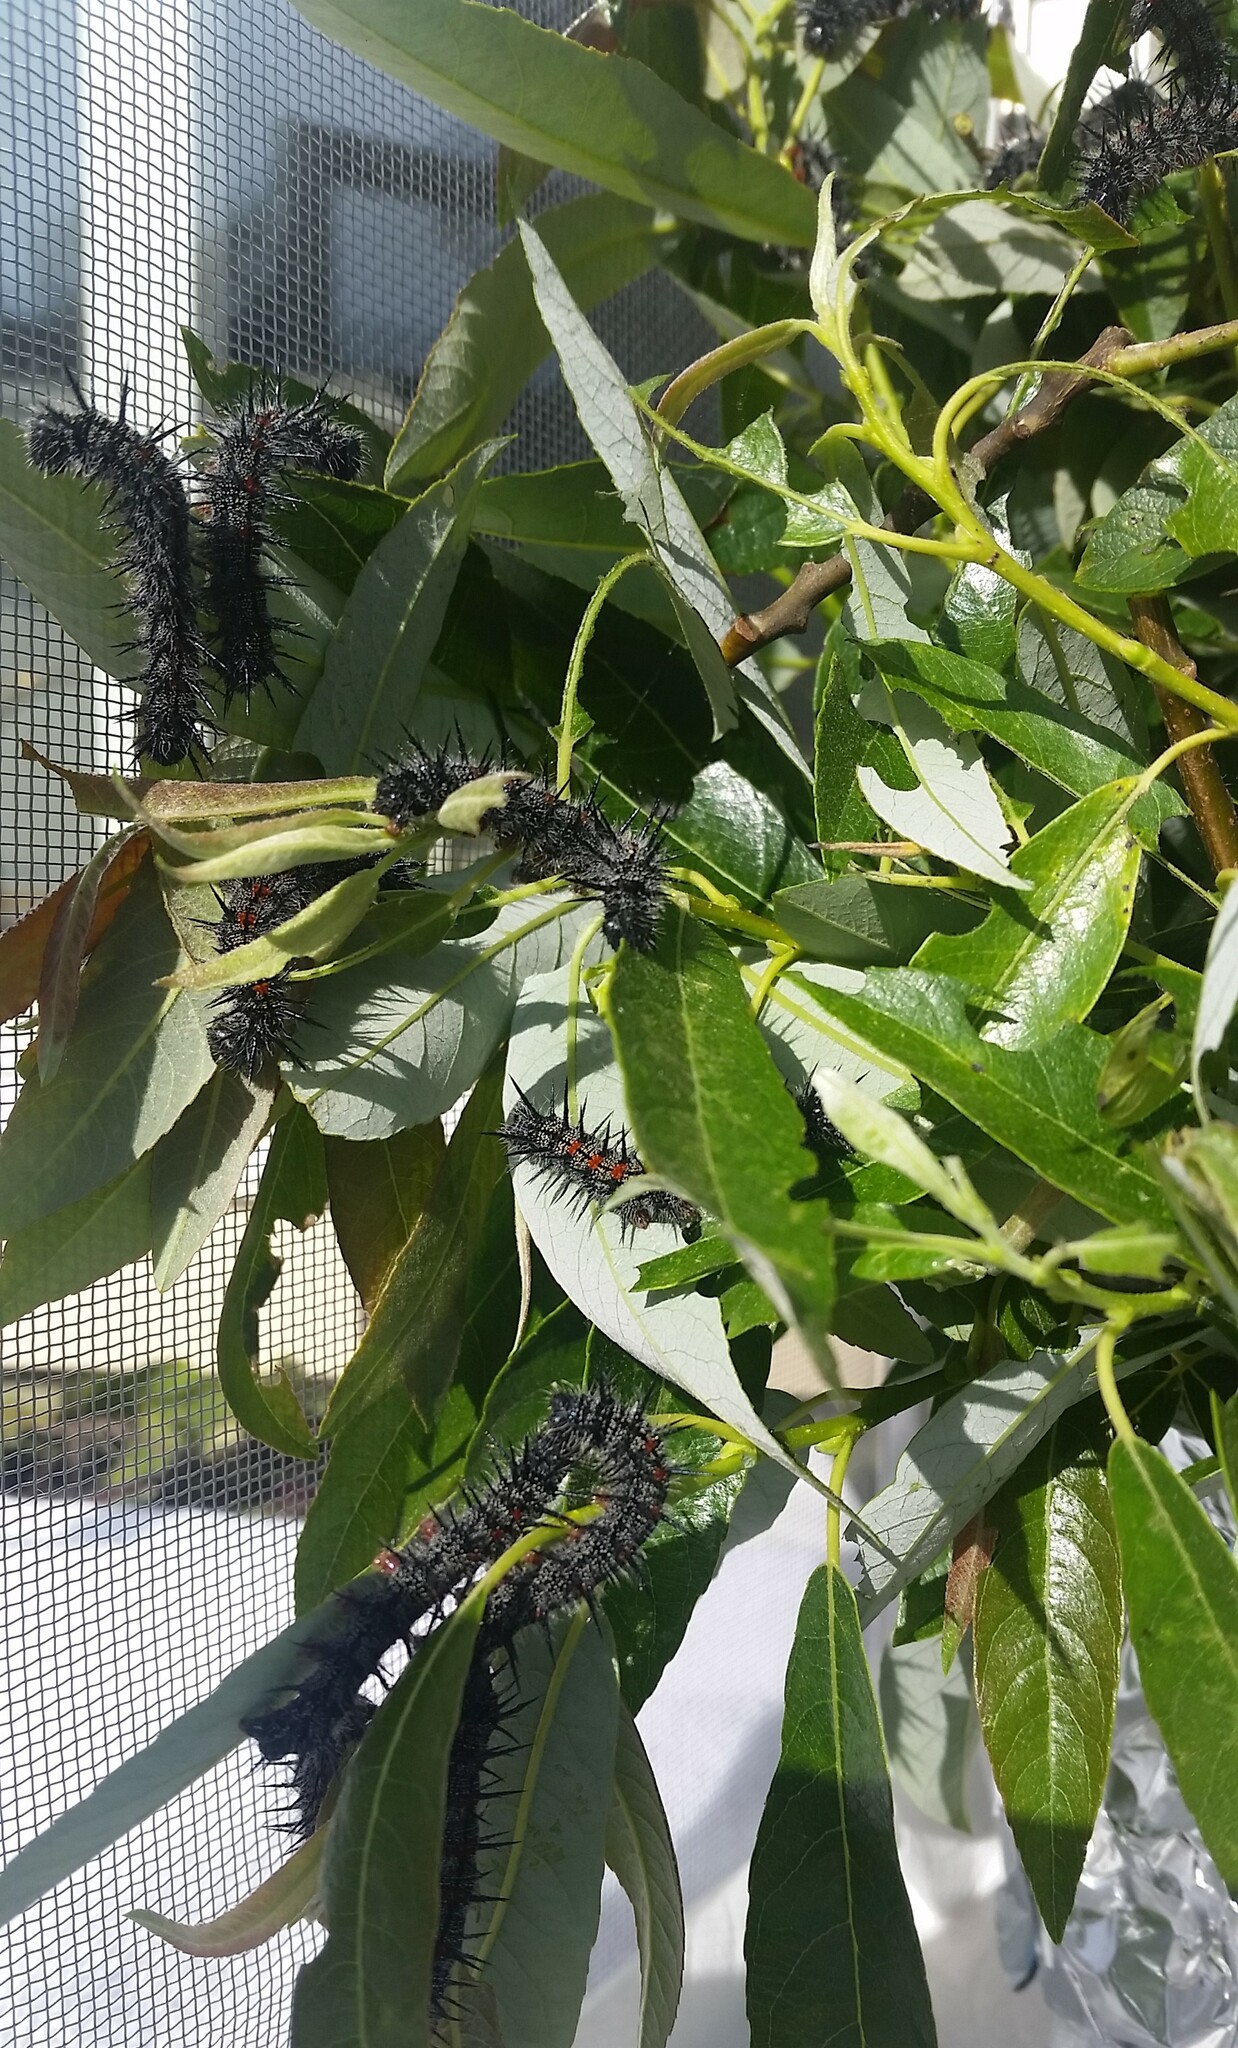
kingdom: Animalia
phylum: Arthropoda
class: Insecta
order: Lepidoptera
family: Nymphalidae
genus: Nymphalis
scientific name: Nymphalis antiopa
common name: Camberwell beauty
